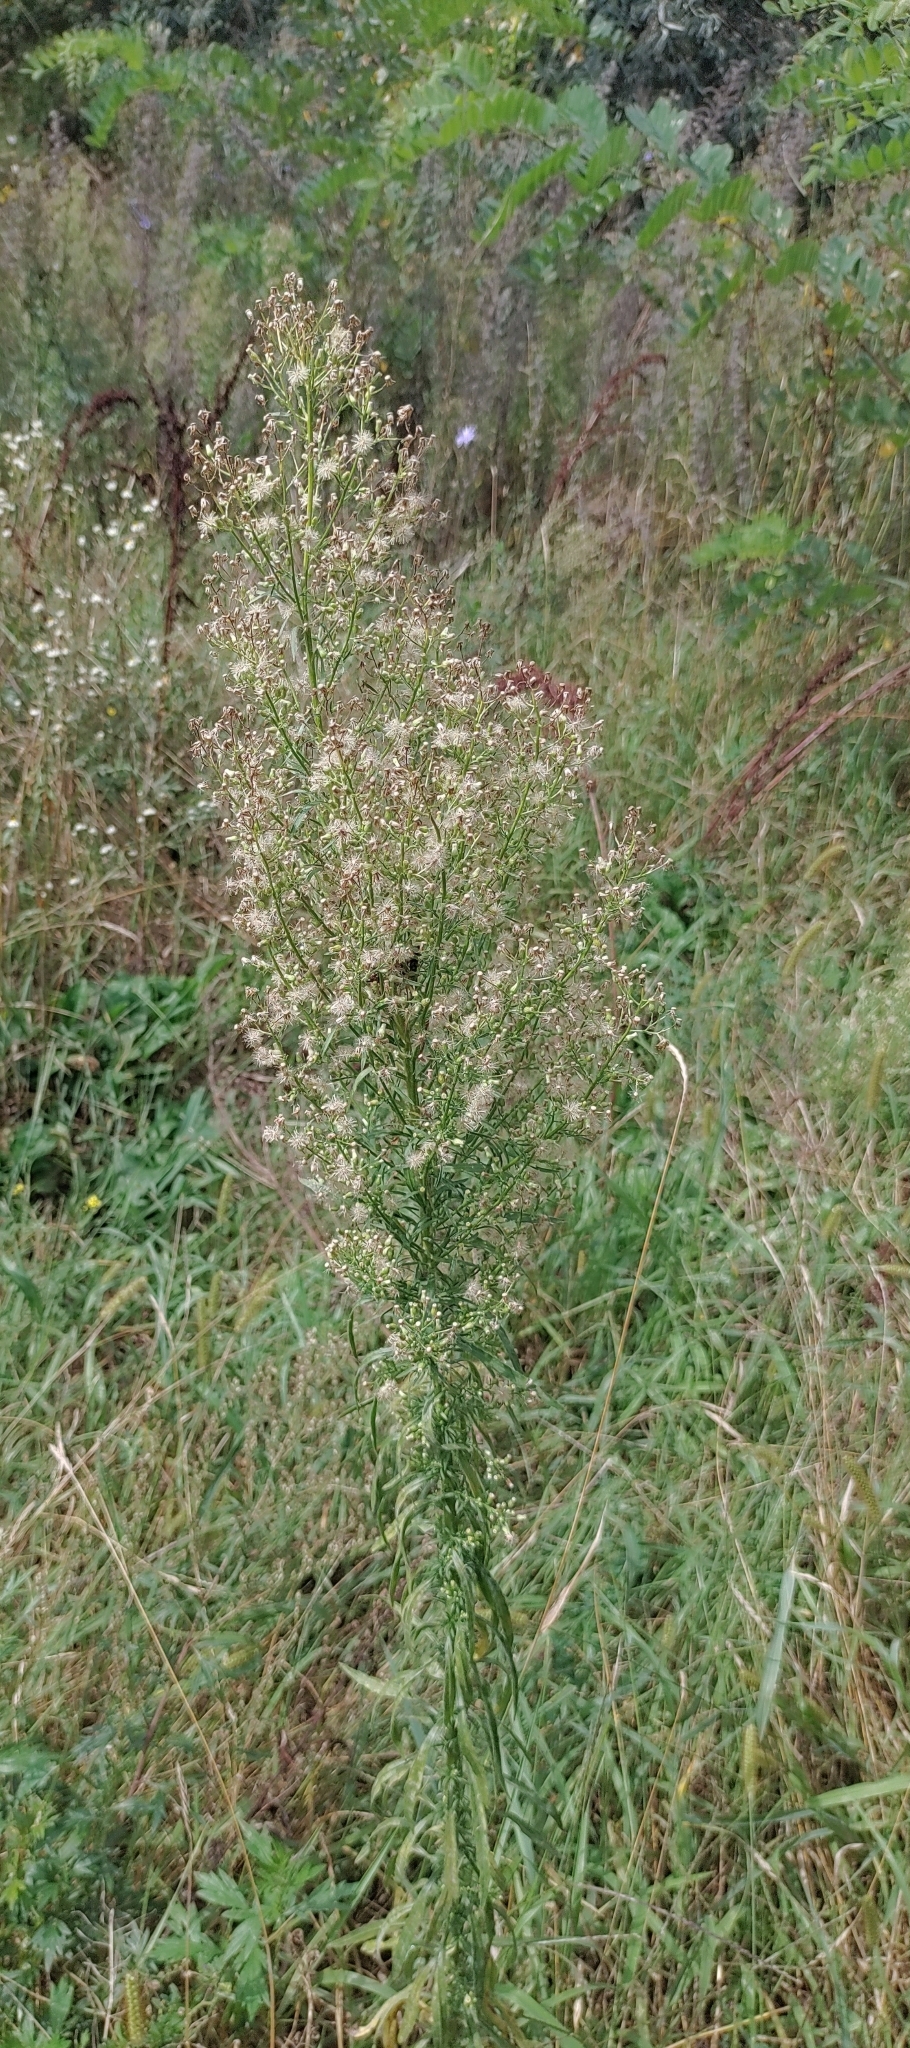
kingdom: Plantae
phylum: Tracheophyta
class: Magnoliopsida
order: Asterales
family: Asteraceae
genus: Erigeron
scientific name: Erigeron canadensis
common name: Canadian fleabane
